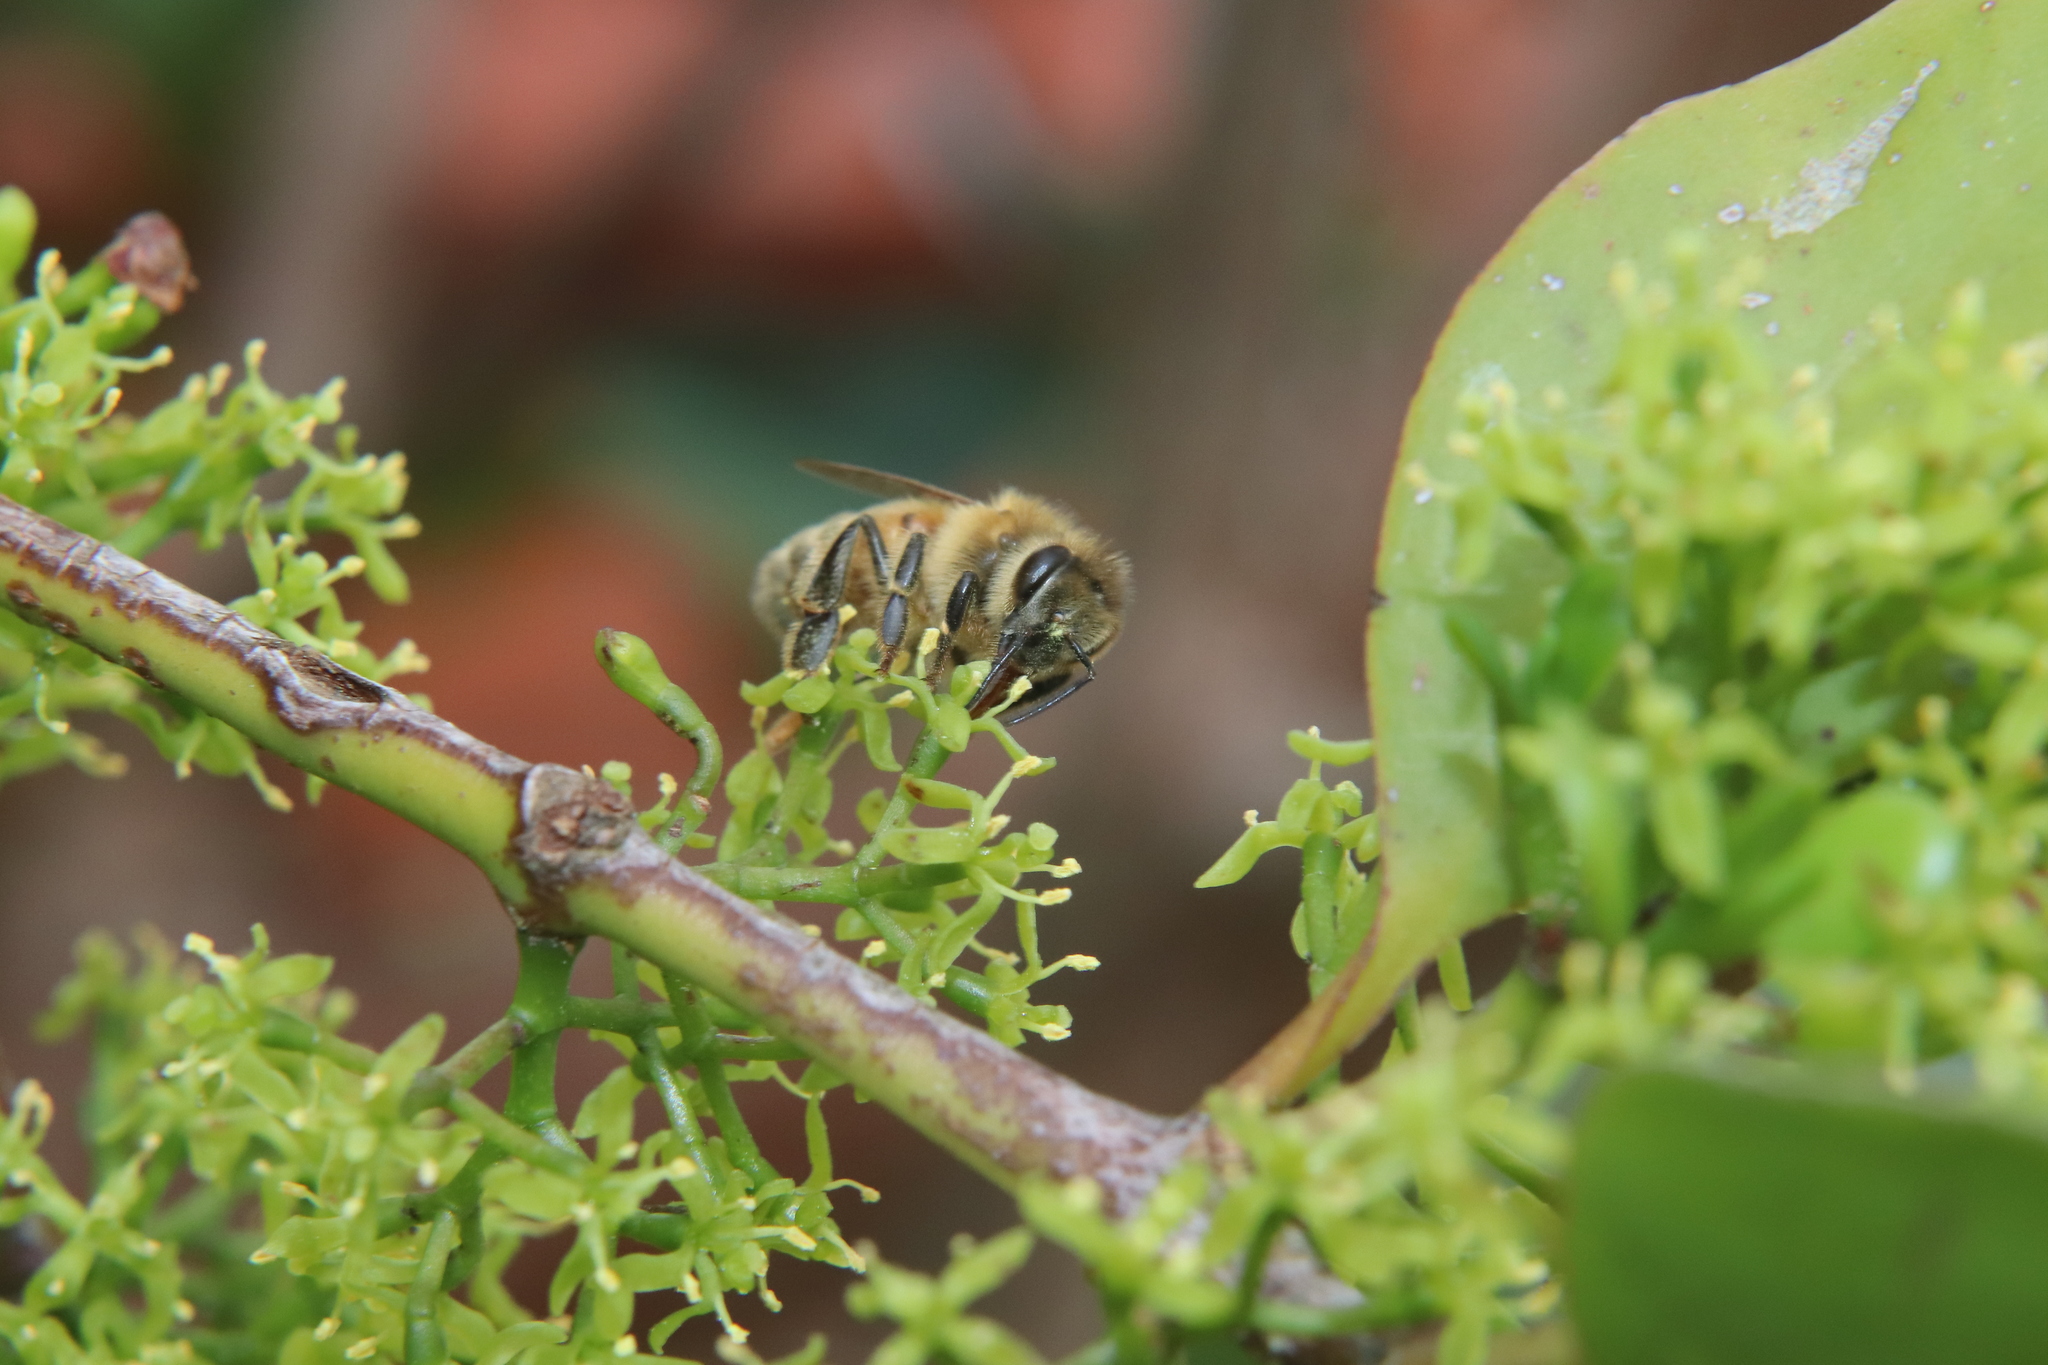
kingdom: Animalia
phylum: Arthropoda
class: Insecta
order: Hymenoptera
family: Apidae
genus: Apis
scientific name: Apis mellifera
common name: Honey bee
